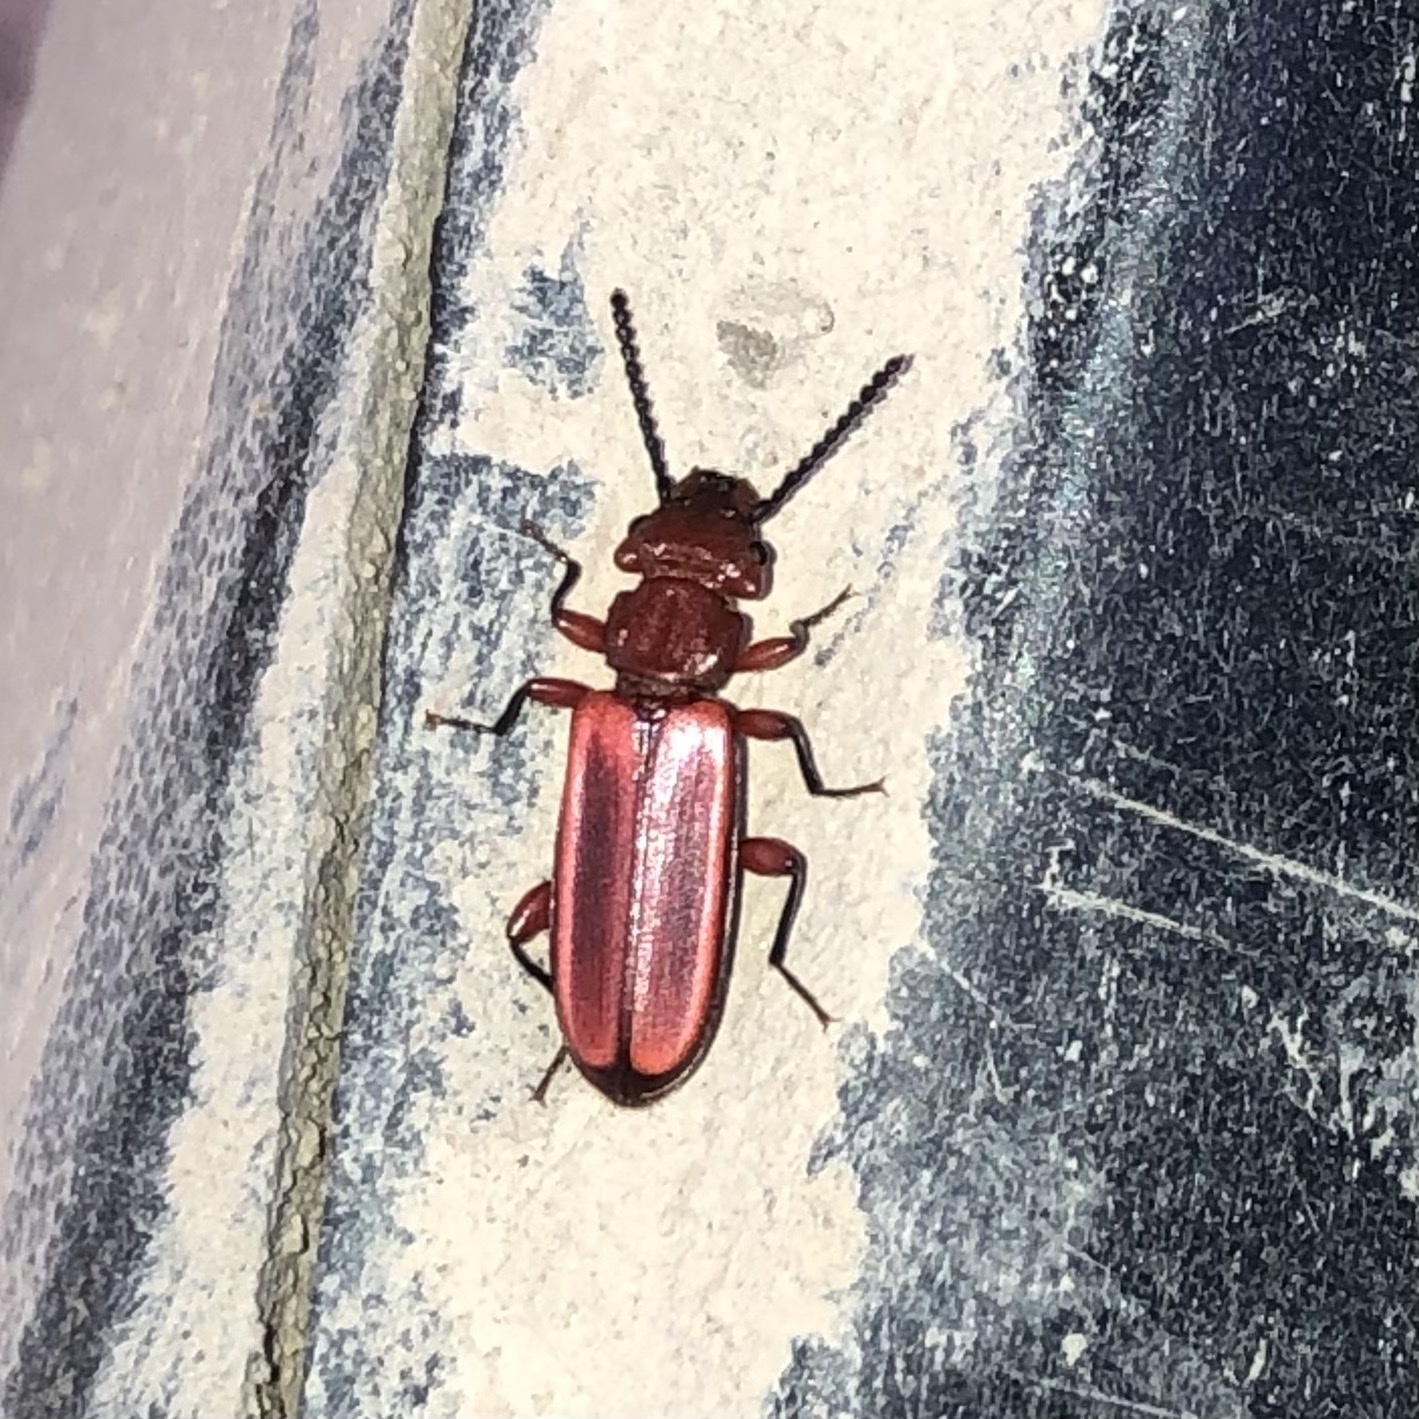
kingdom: Animalia
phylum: Arthropoda
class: Insecta
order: Coleoptera
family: Cucujidae
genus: Cucujus
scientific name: Cucujus clavipes
